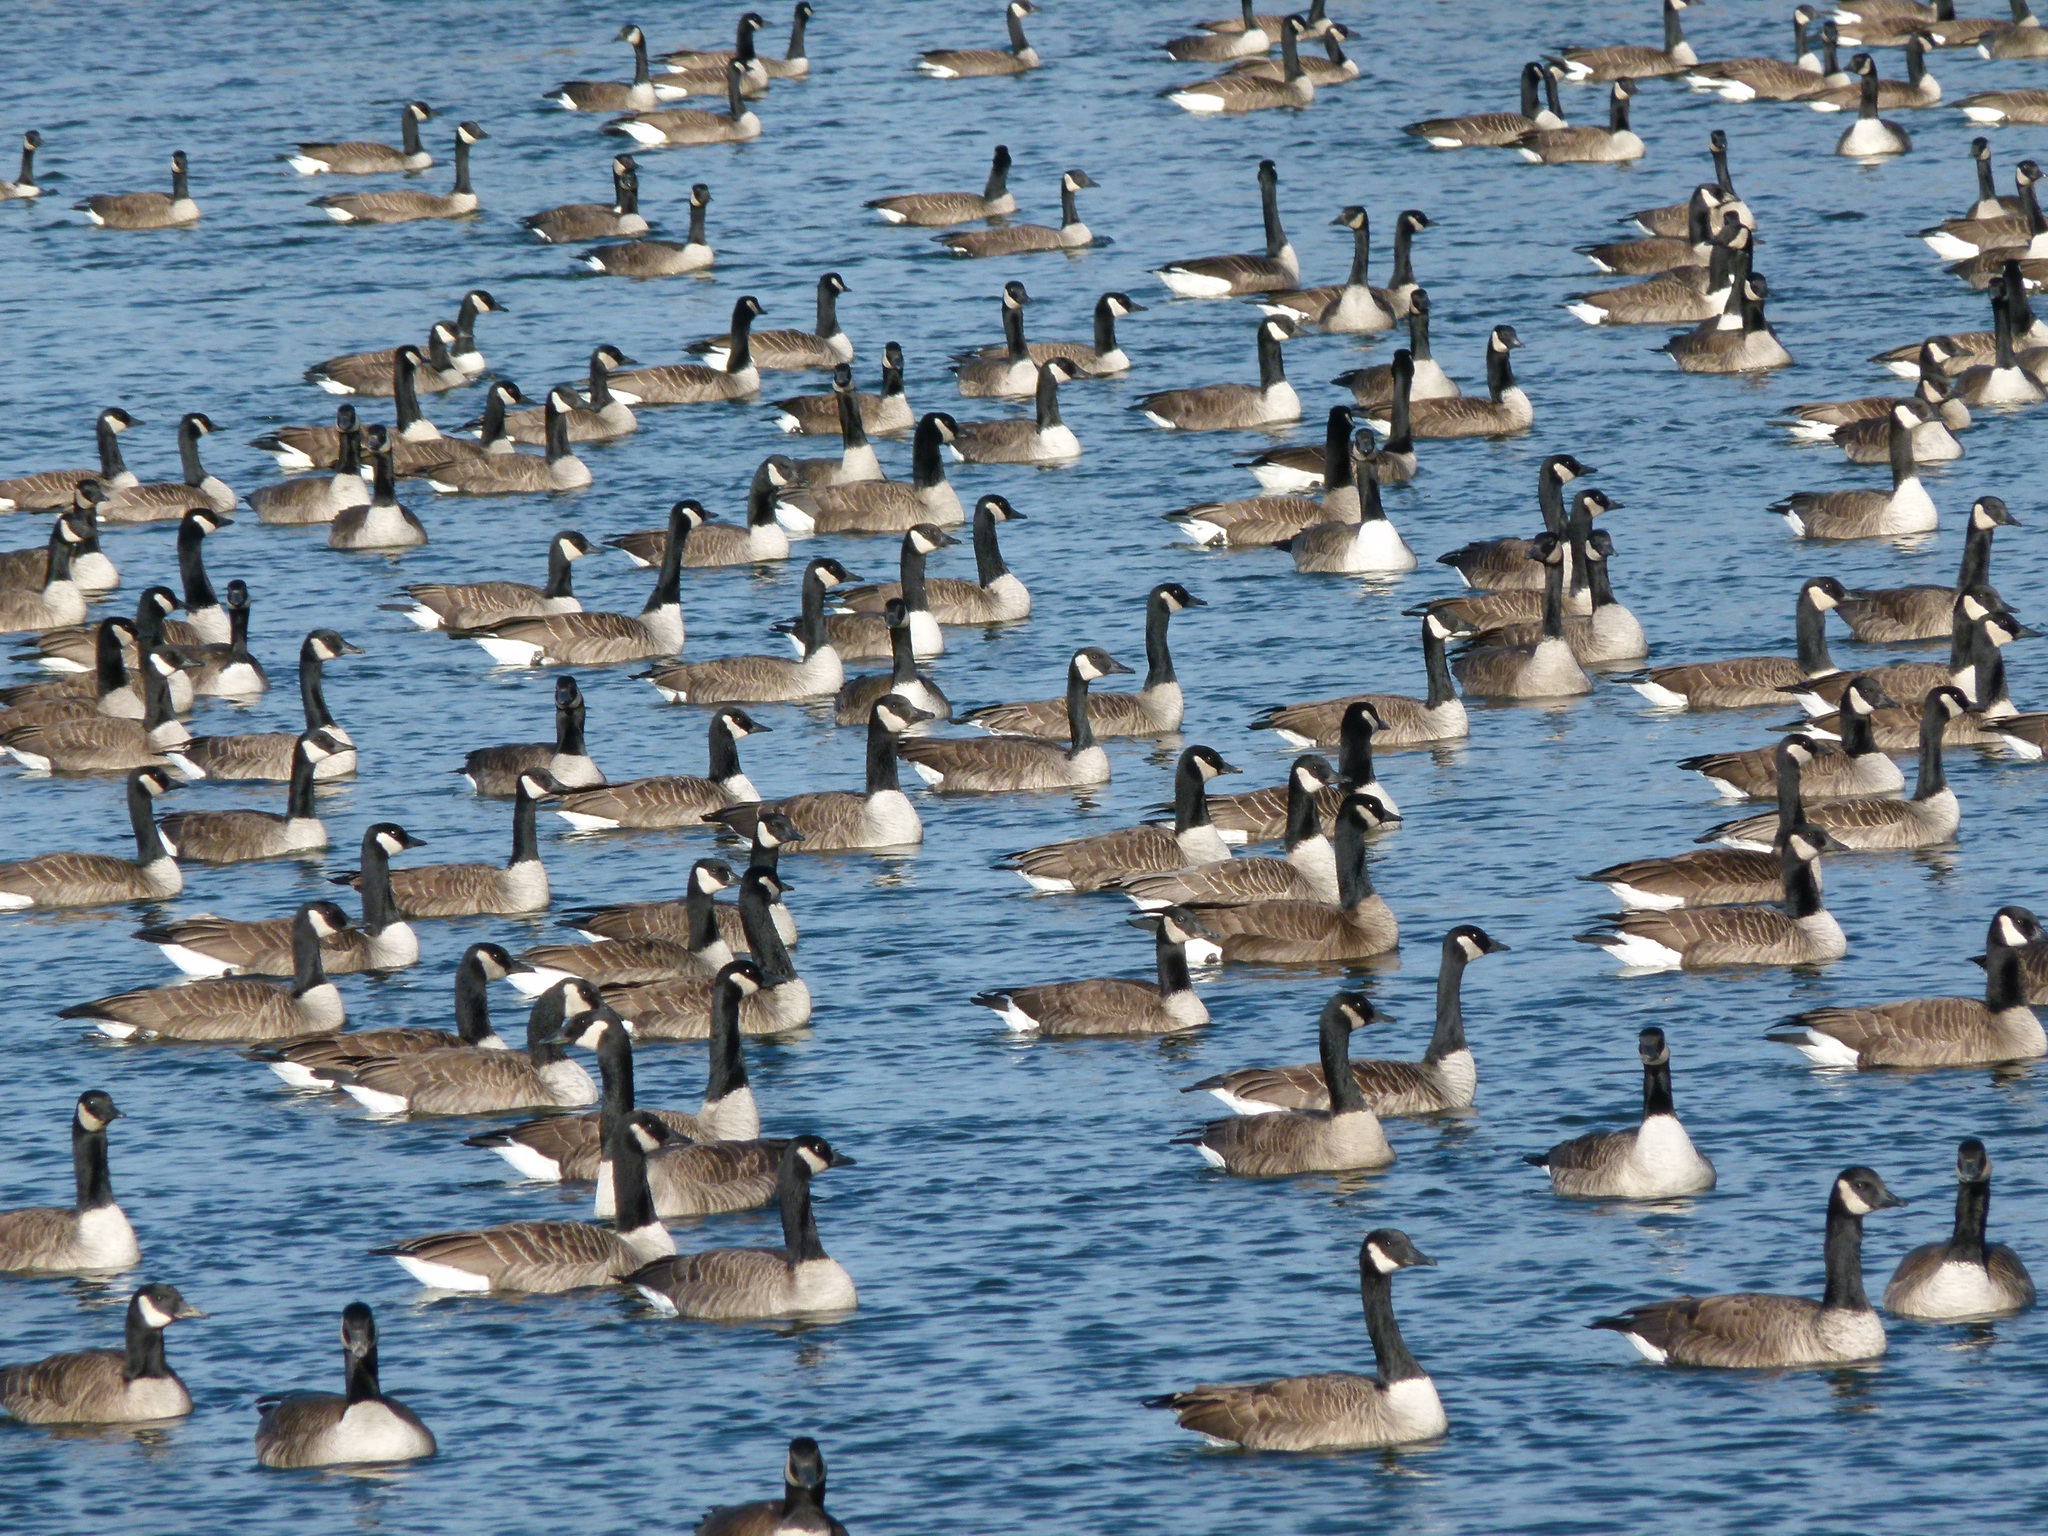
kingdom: Animalia
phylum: Chordata
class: Aves
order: Anseriformes
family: Anatidae
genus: Branta
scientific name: Branta canadensis
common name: Canada goose
